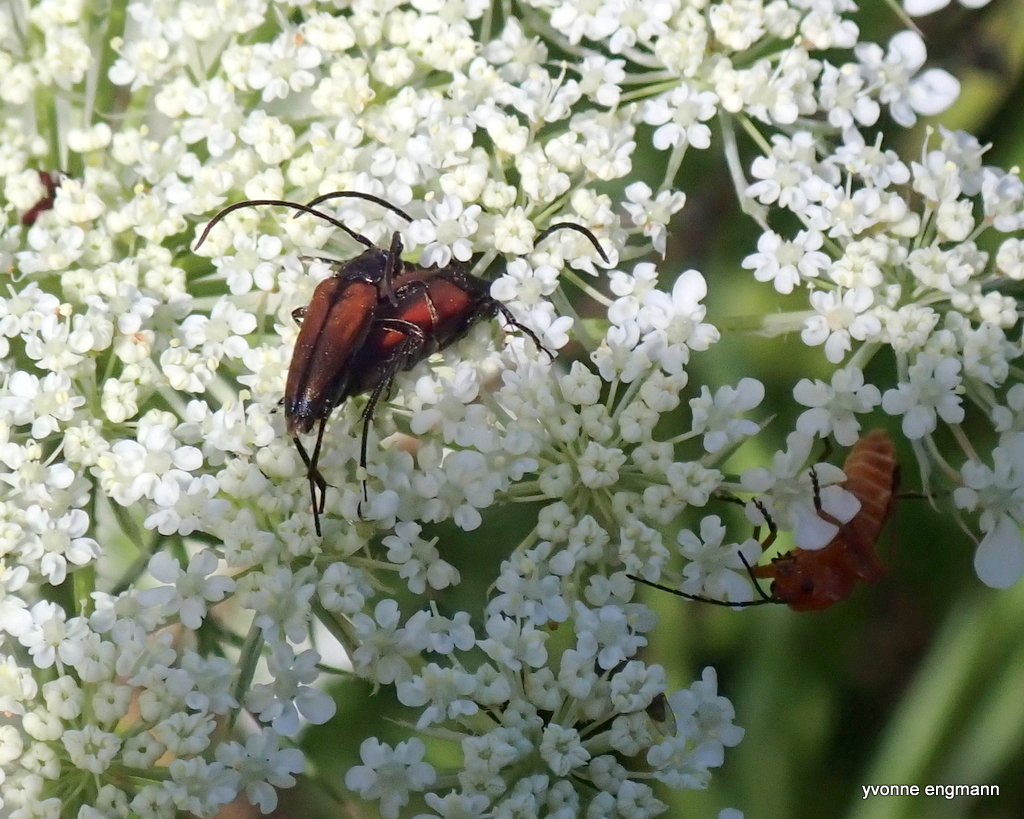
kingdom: Animalia
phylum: Arthropoda
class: Insecta
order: Coleoptera
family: Cerambycidae
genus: Stenurella
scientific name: Stenurella melanura
